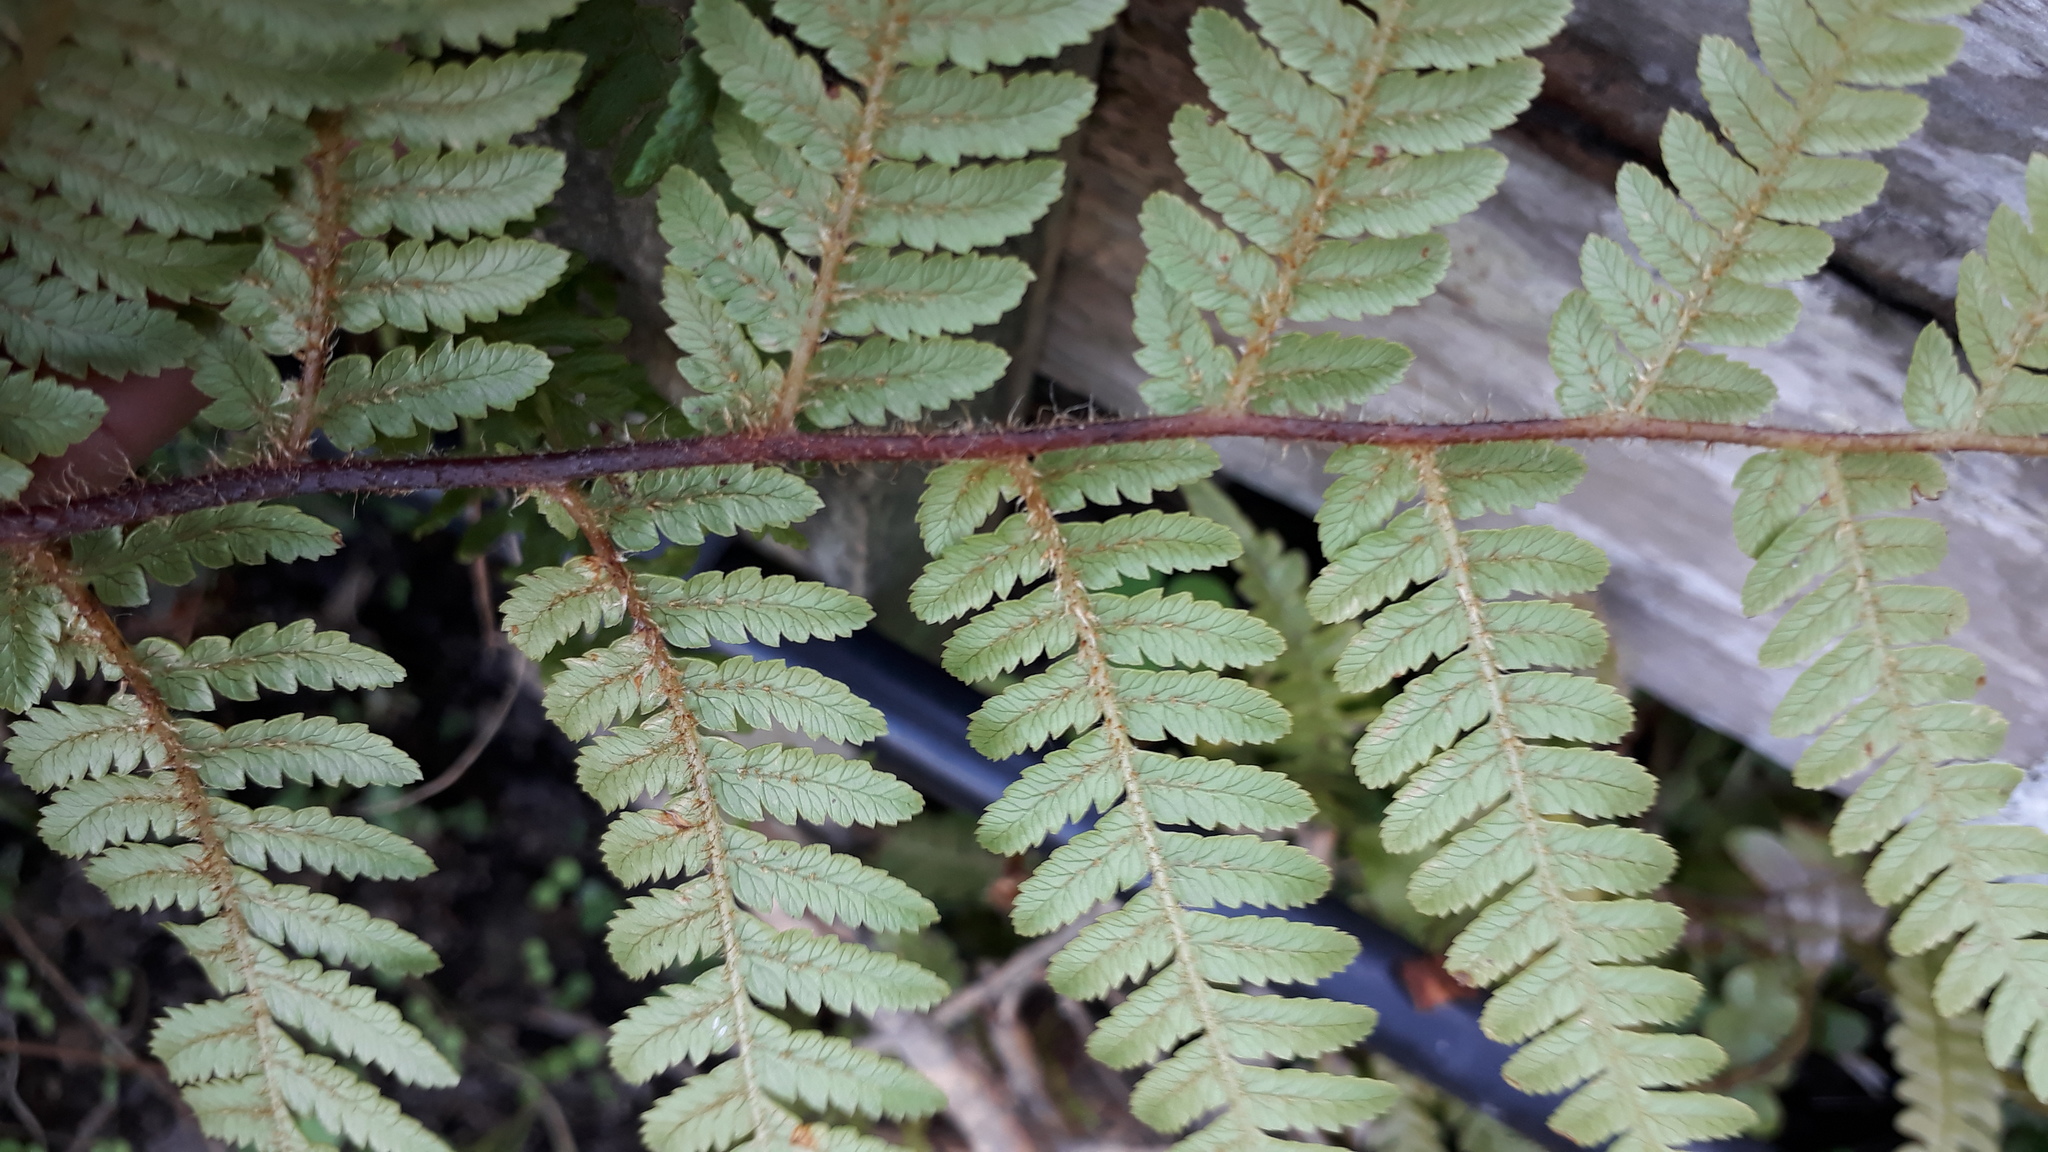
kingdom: Plantae
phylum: Tracheophyta
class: Polypodiopsida
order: Cyatheales
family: Cyatheaceae
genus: Sphaeropteris
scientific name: Sphaeropteris medullaris
